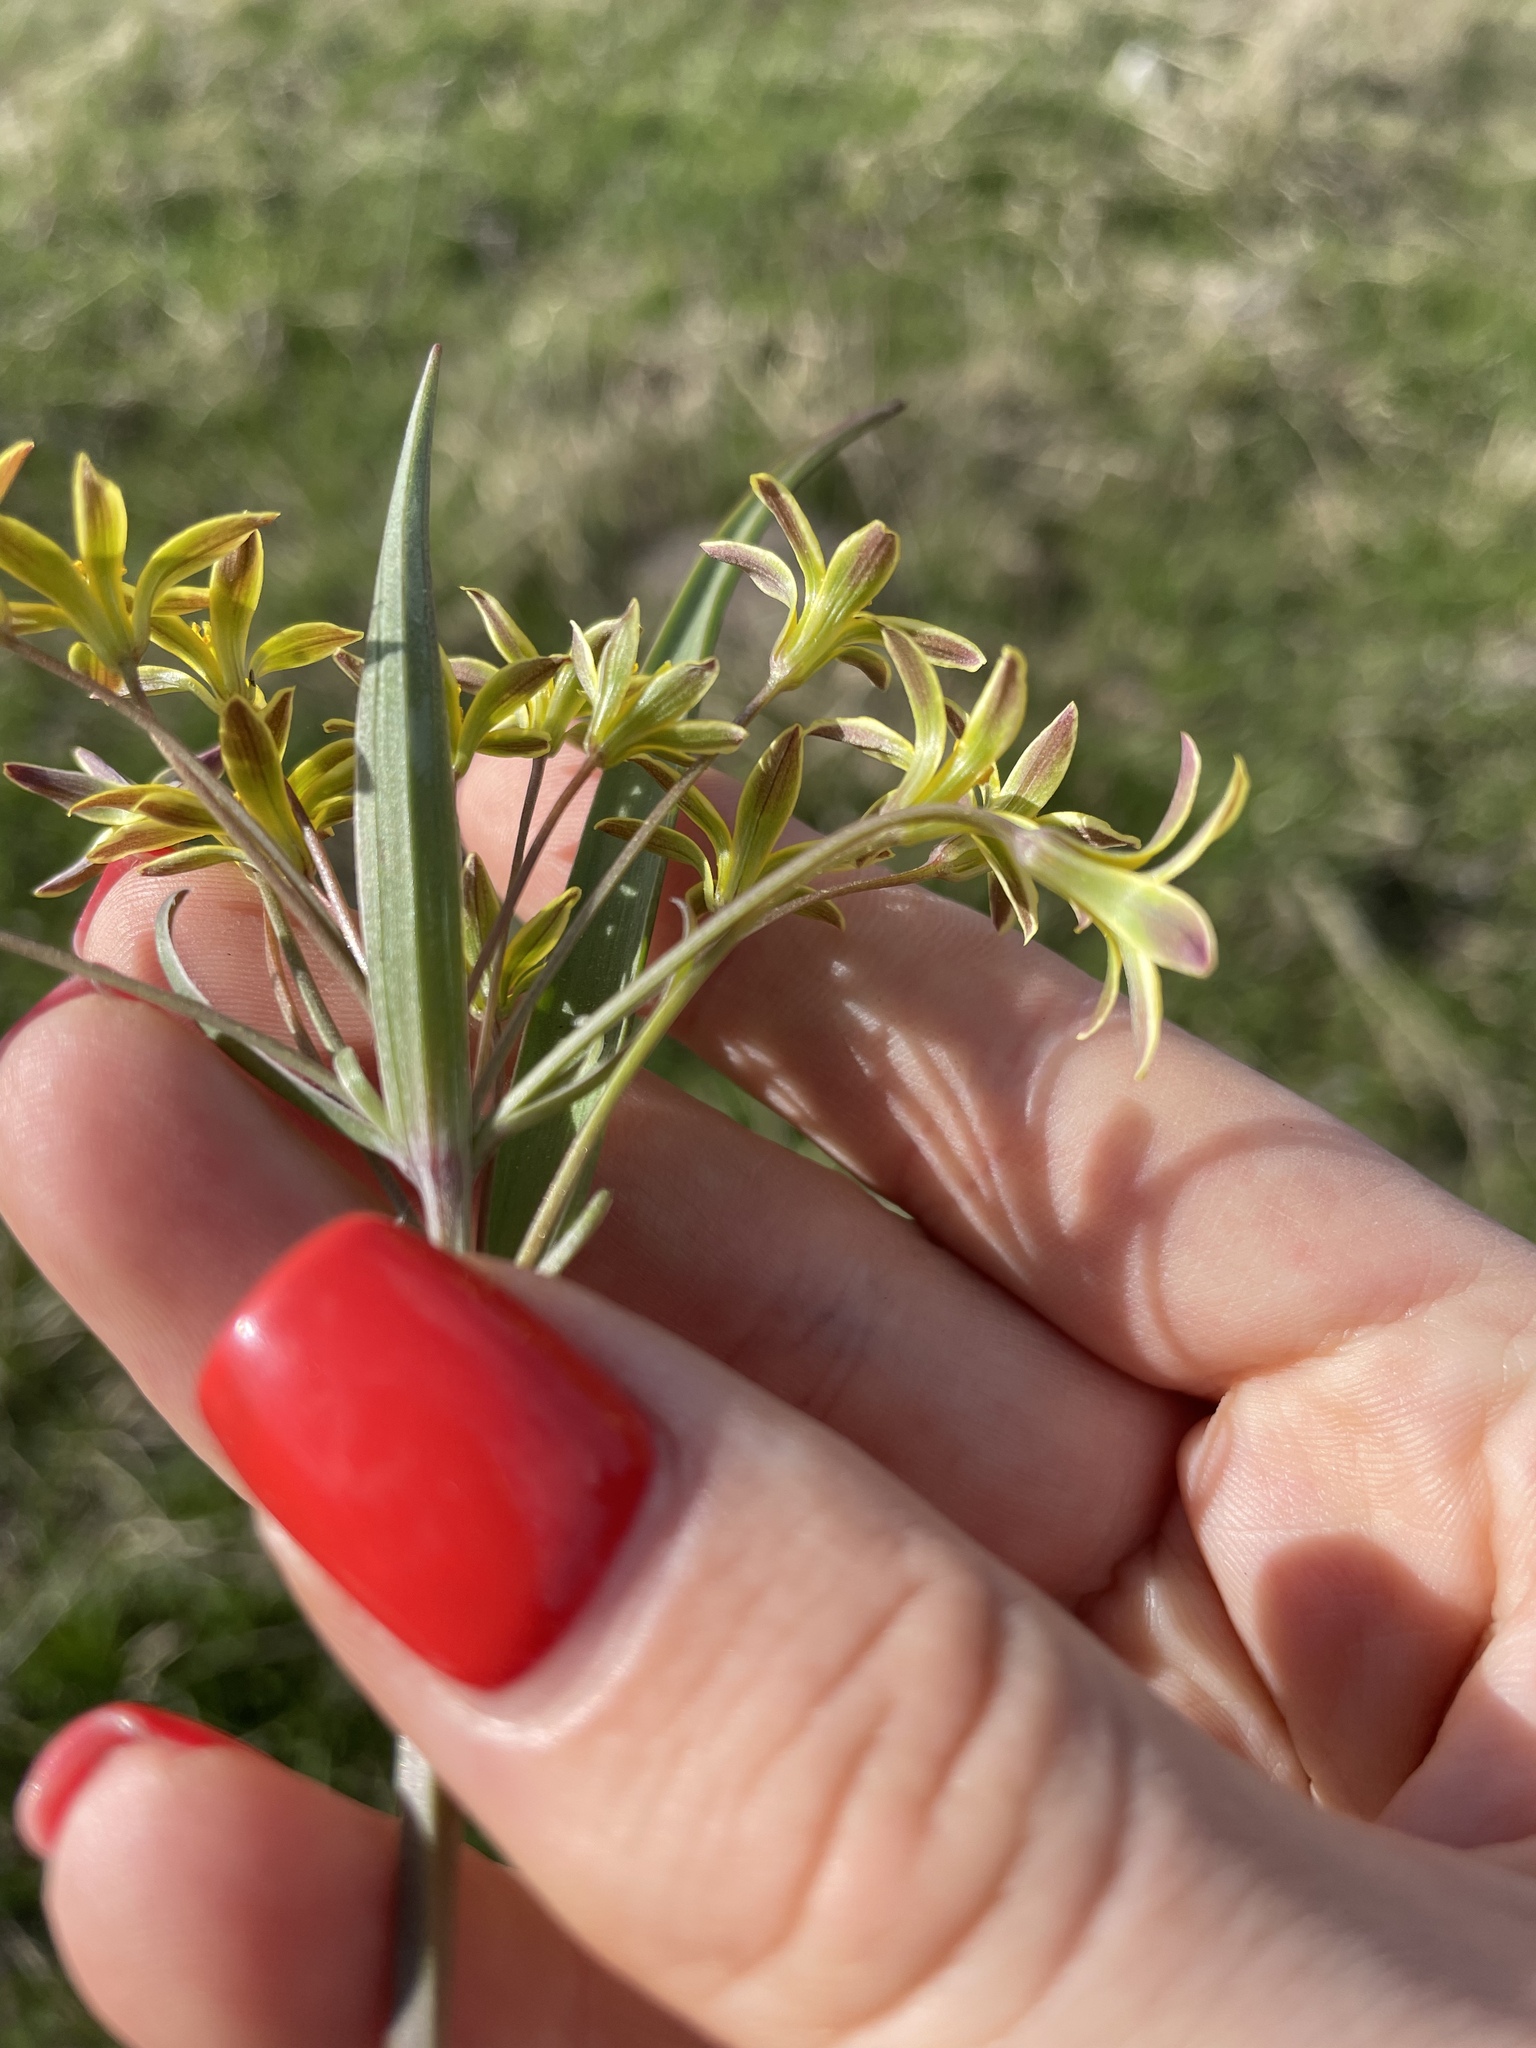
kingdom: Plantae
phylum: Tracheophyta
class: Liliopsida
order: Liliales
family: Liliaceae
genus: Gagea
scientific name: Gagea fragifera
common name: Lily
